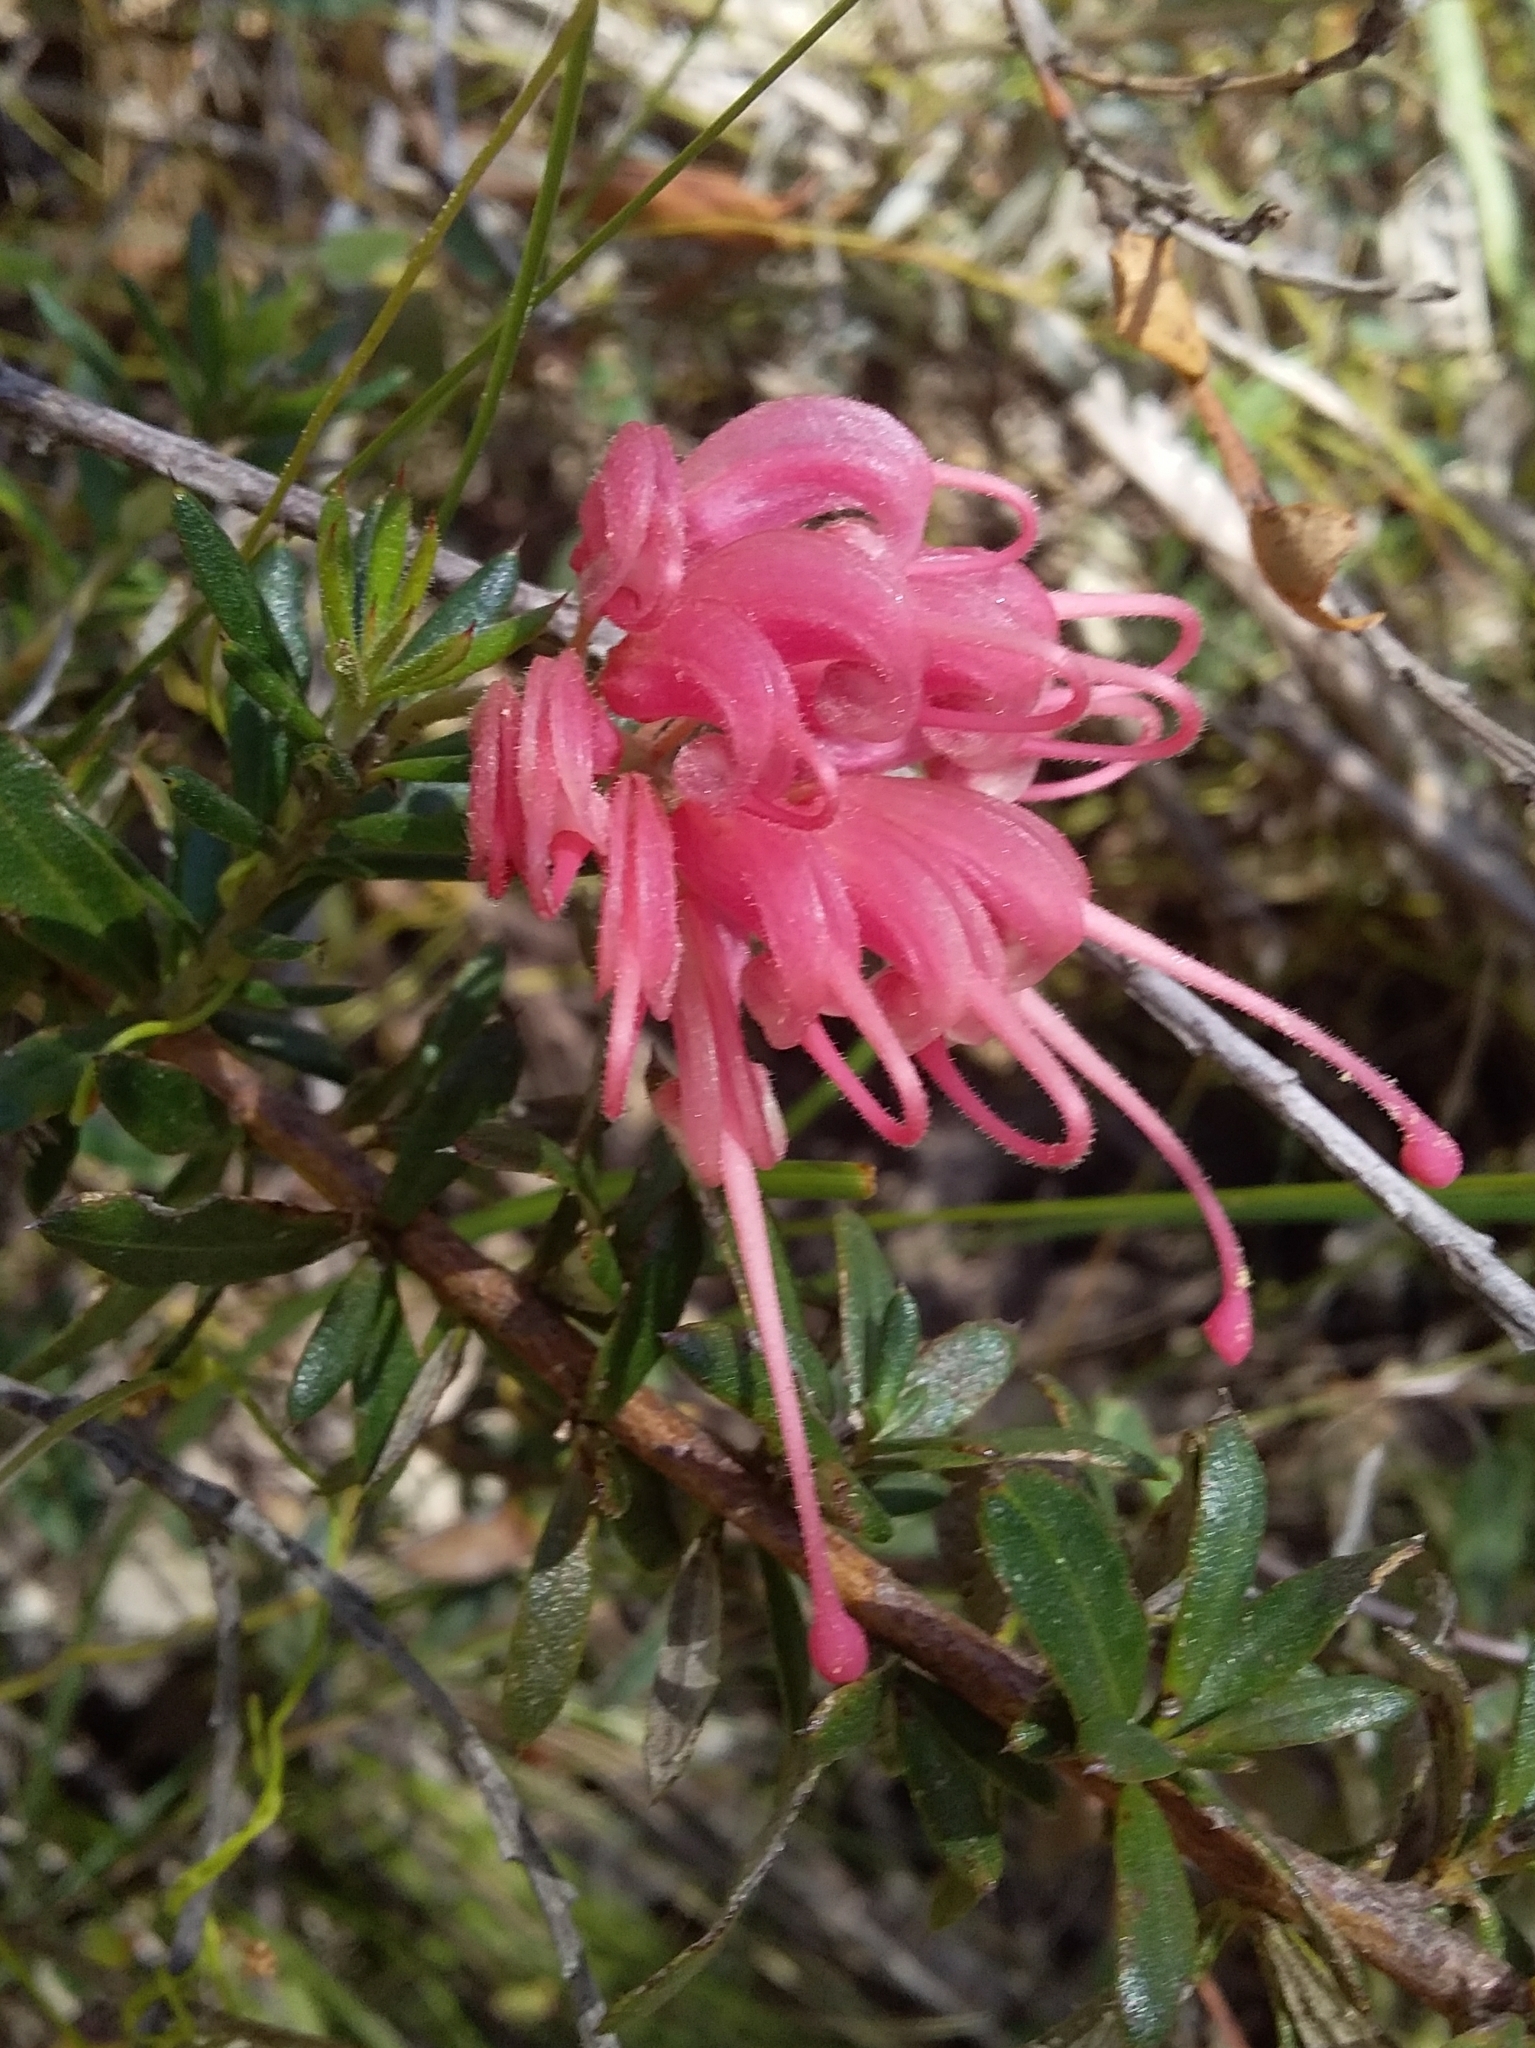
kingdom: Plantae
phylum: Tracheophyta
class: Magnoliopsida
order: Proteales
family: Proteaceae
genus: Grevillea
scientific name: Grevillea lavandulacea
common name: Lavender grevillea
